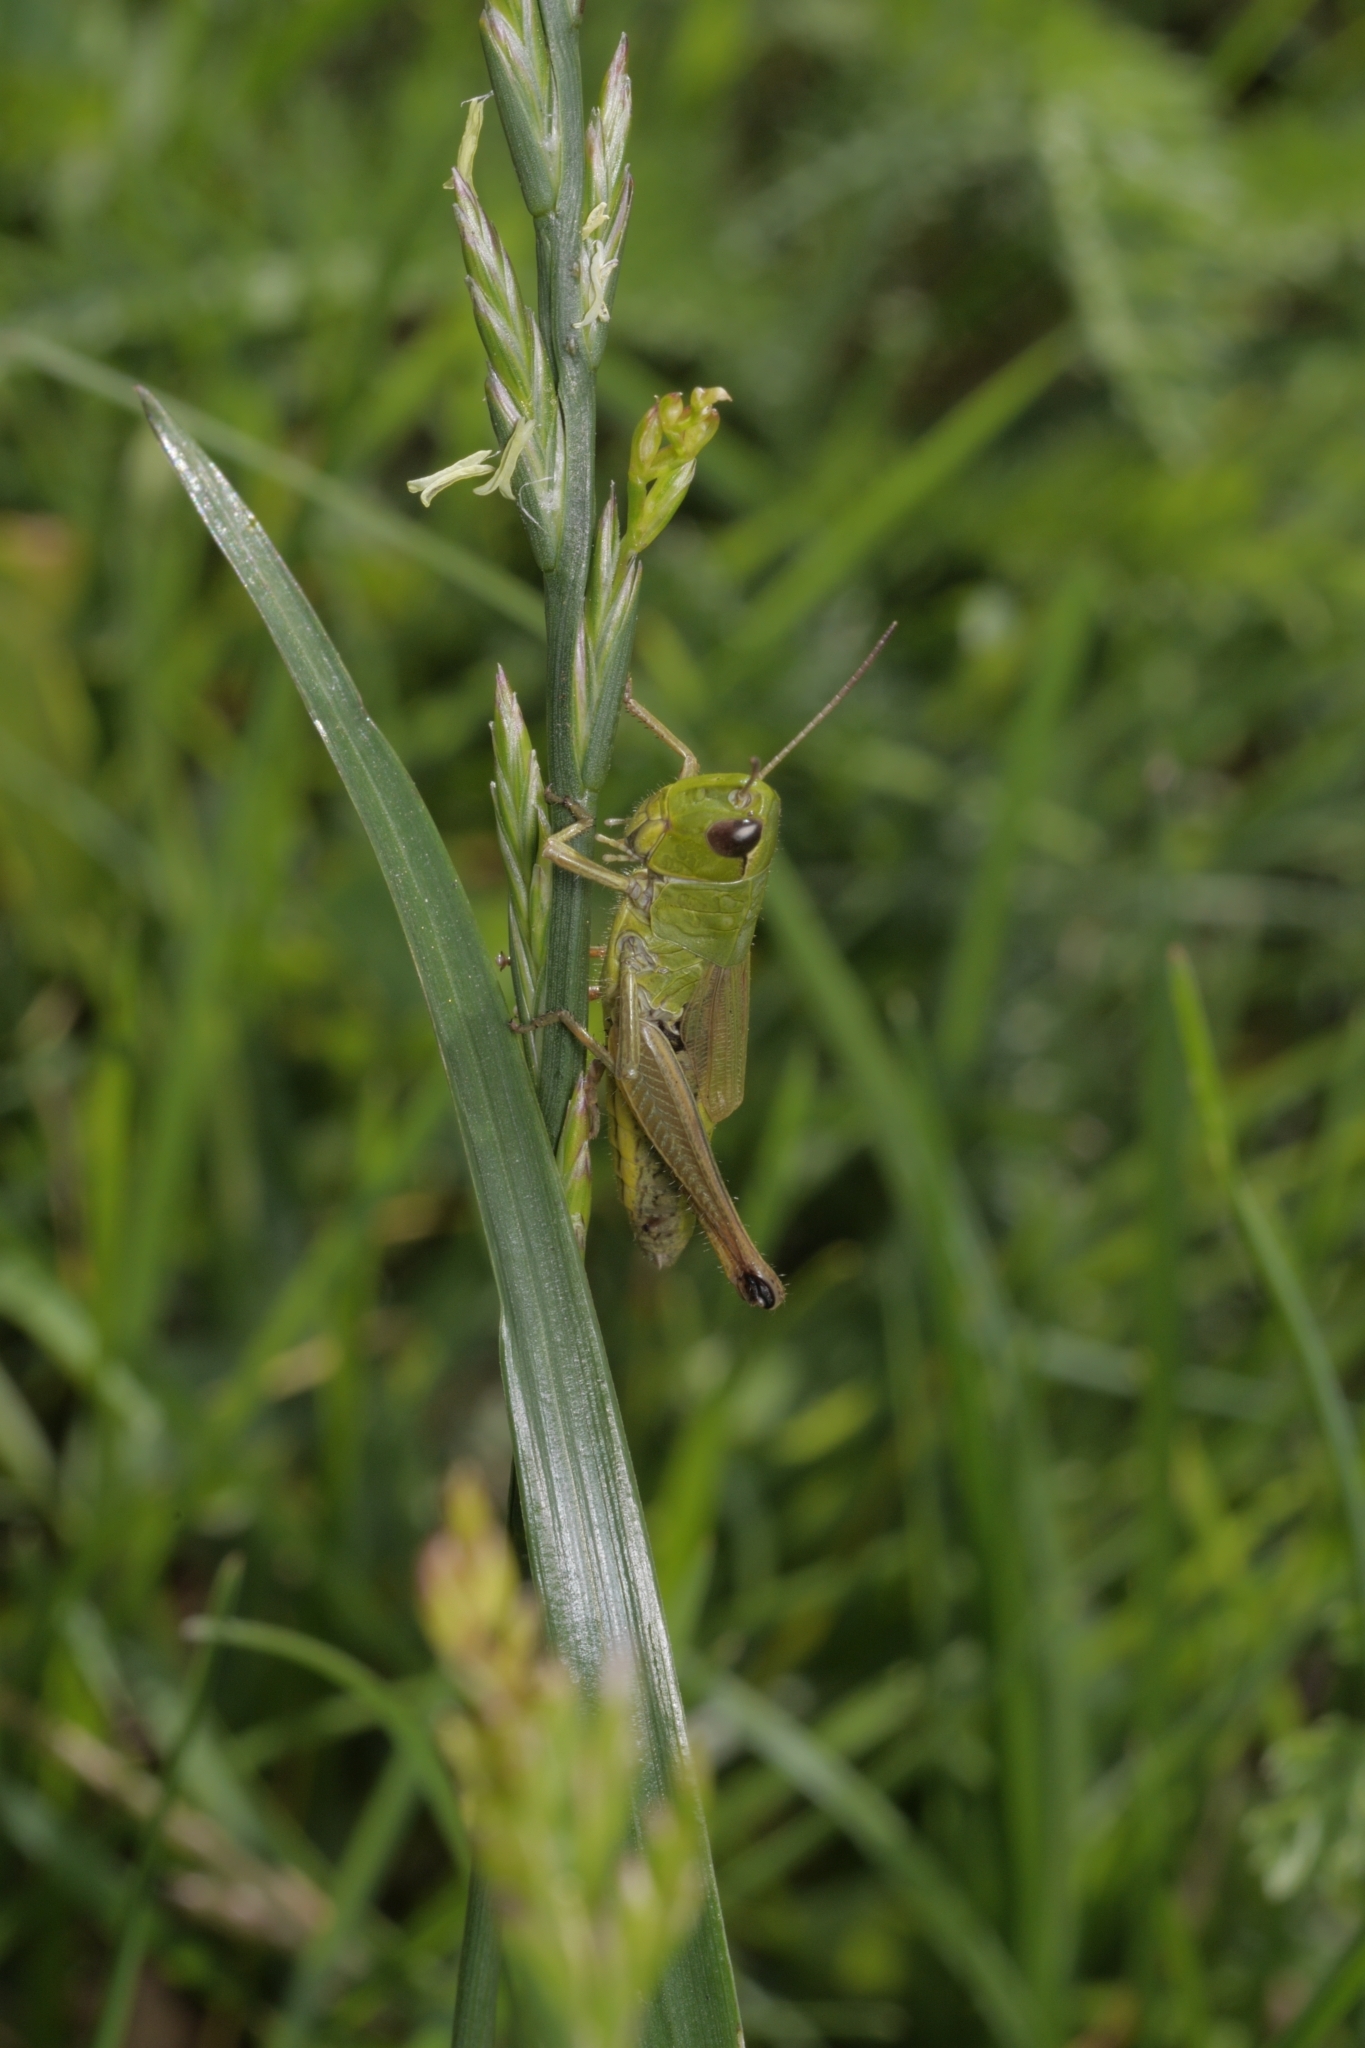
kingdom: Animalia
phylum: Arthropoda
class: Insecta
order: Orthoptera
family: Acrididae
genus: Pseudochorthippus
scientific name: Pseudochorthippus parallelus
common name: Meadow grasshopper
